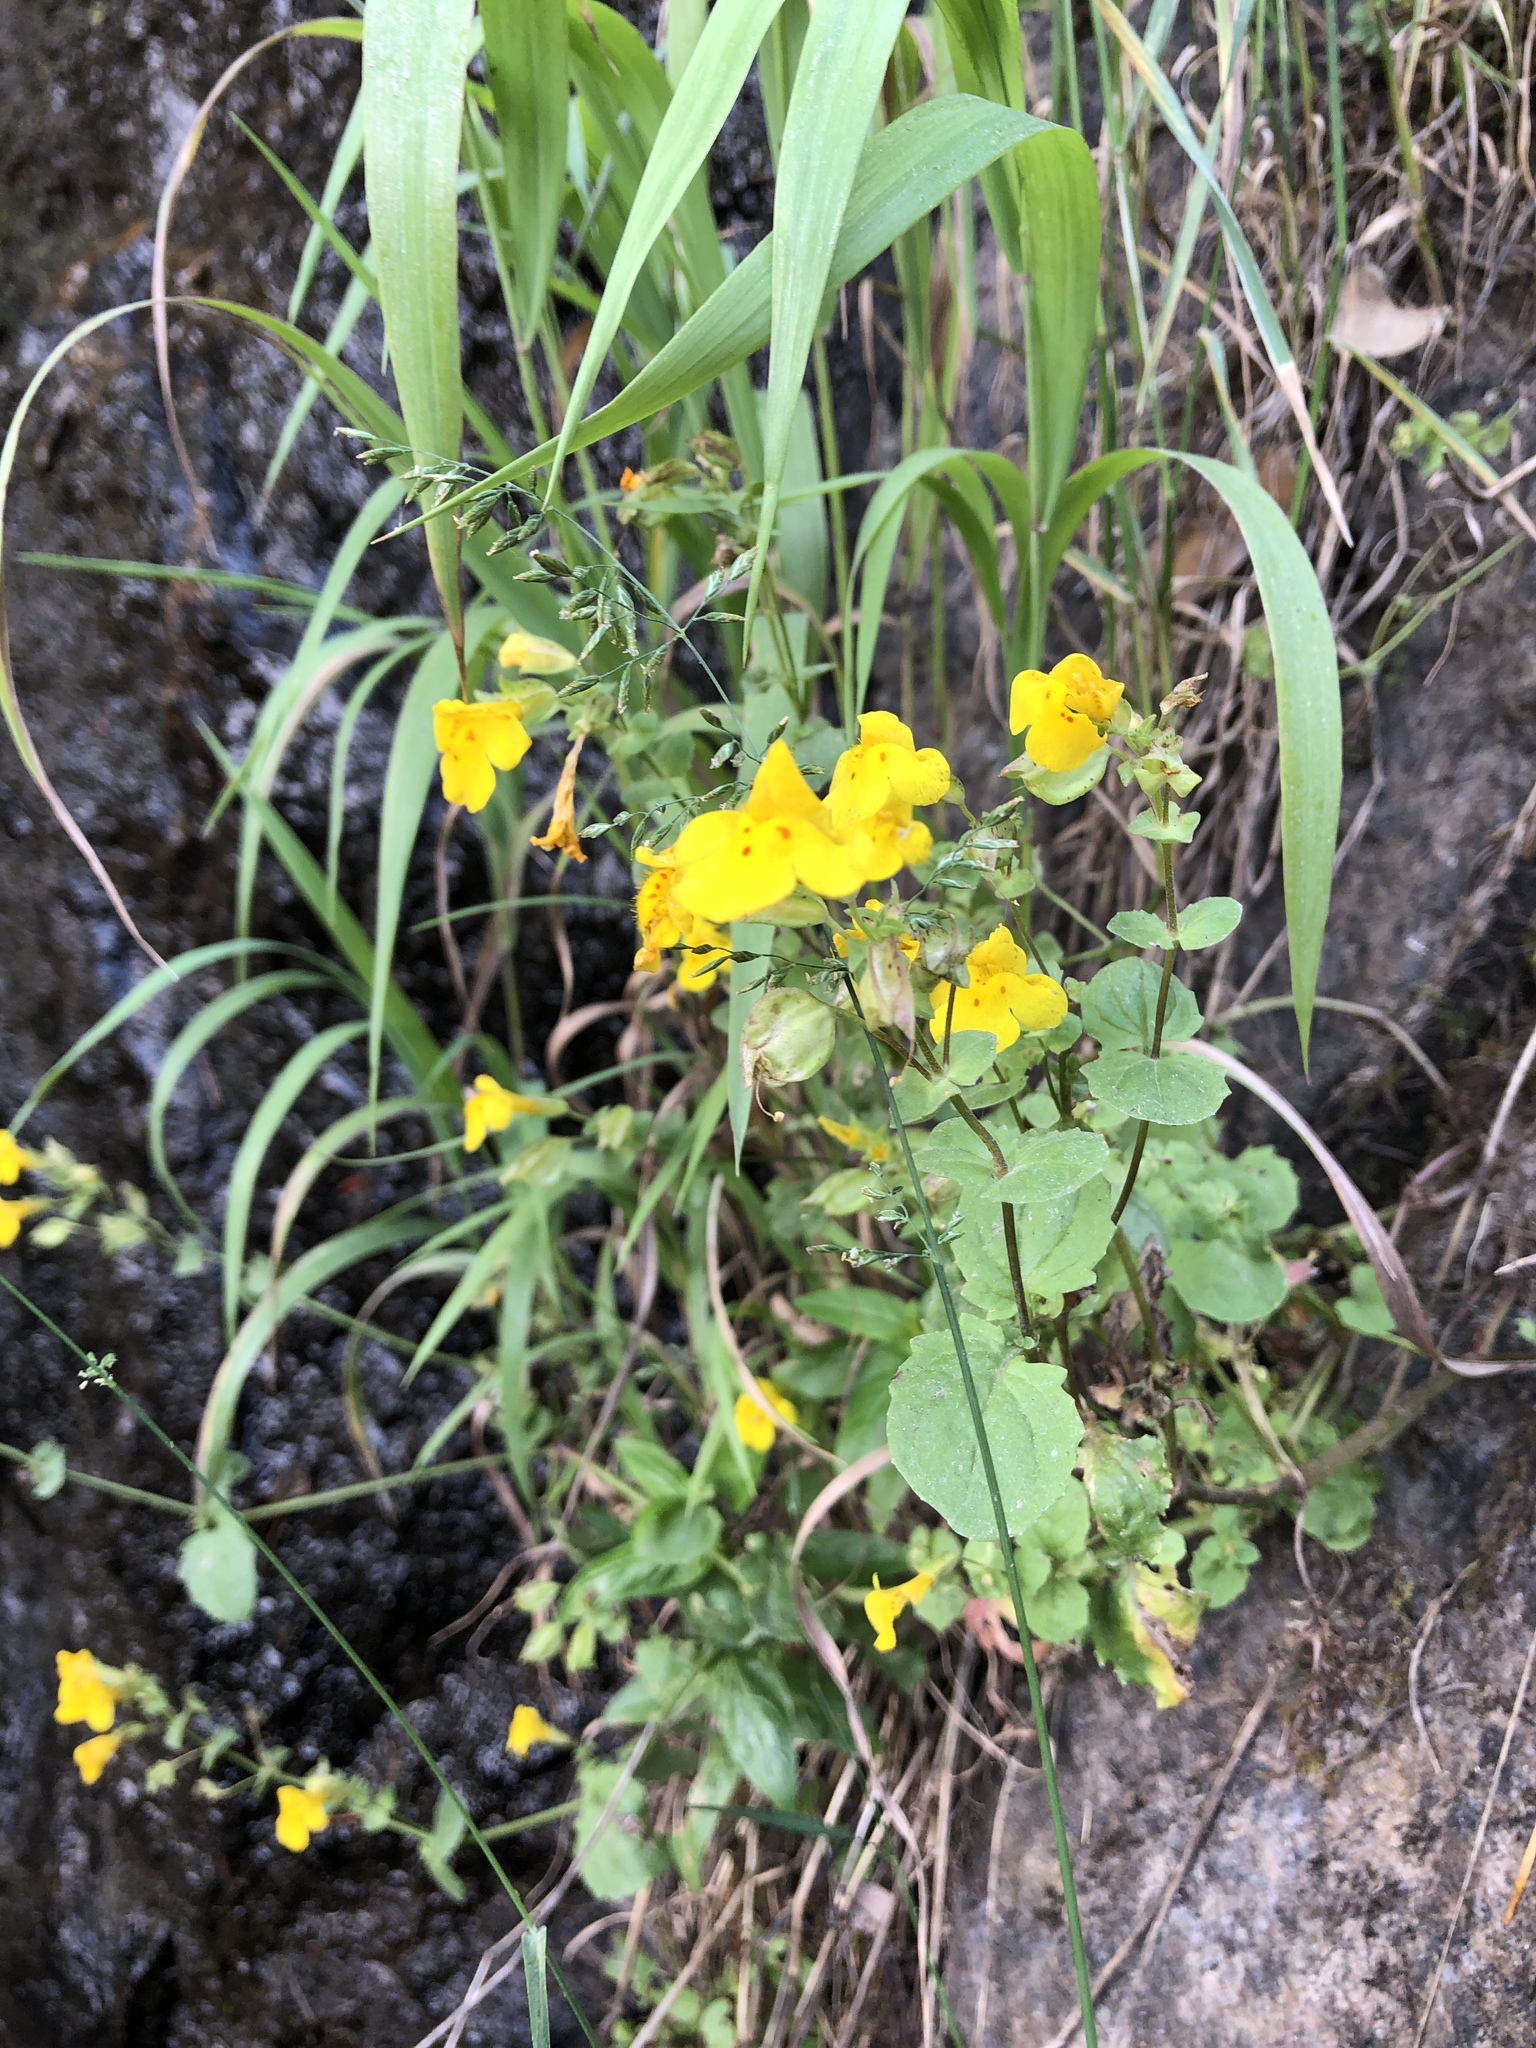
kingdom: Plantae
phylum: Tracheophyta
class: Magnoliopsida
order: Lamiales
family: Phrymaceae
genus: Erythranthe
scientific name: Erythranthe guttata
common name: Monkeyflower
